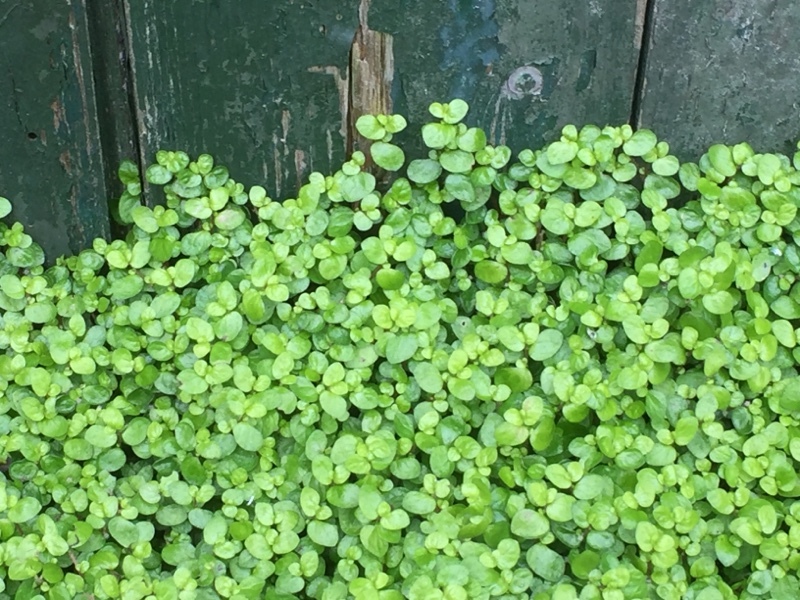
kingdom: Plantae
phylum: Tracheophyta
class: Magnoliopsida
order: Rosales
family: Urticaceae
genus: Soleirolia
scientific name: Soleirolia soleirolii
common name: Mind-your-own-business
